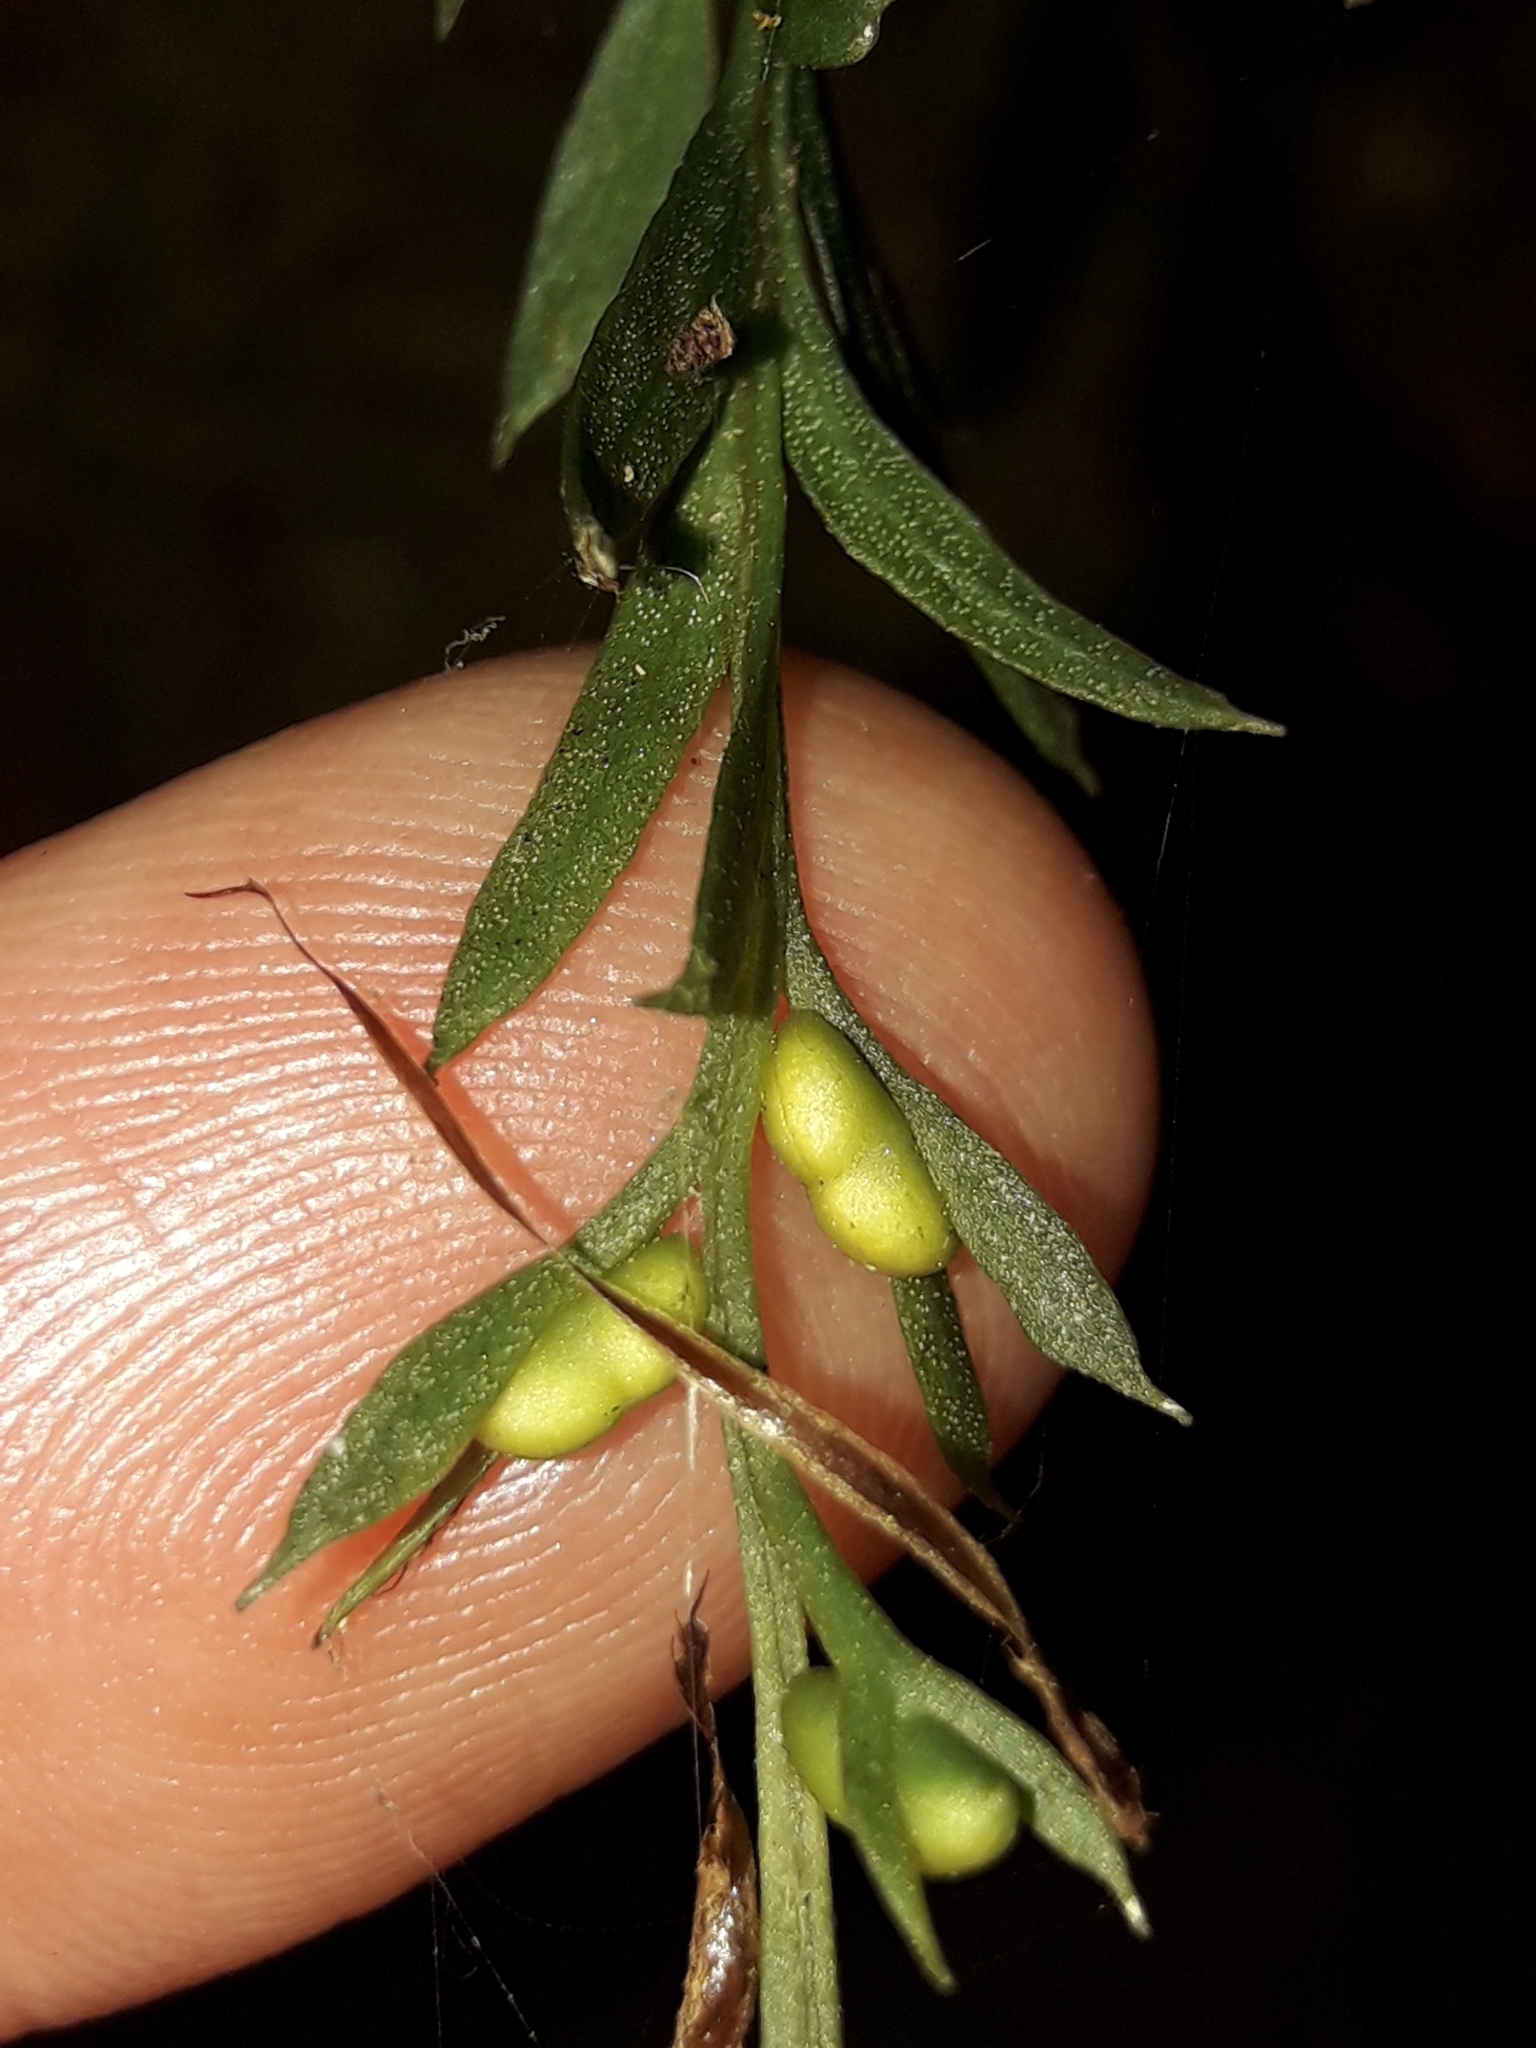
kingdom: Plantae
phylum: Tracheophyta
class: Polypodiopsida
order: Psilotales
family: Psilotaceae
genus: Tmesipteris
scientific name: Tmesipteris elongata
